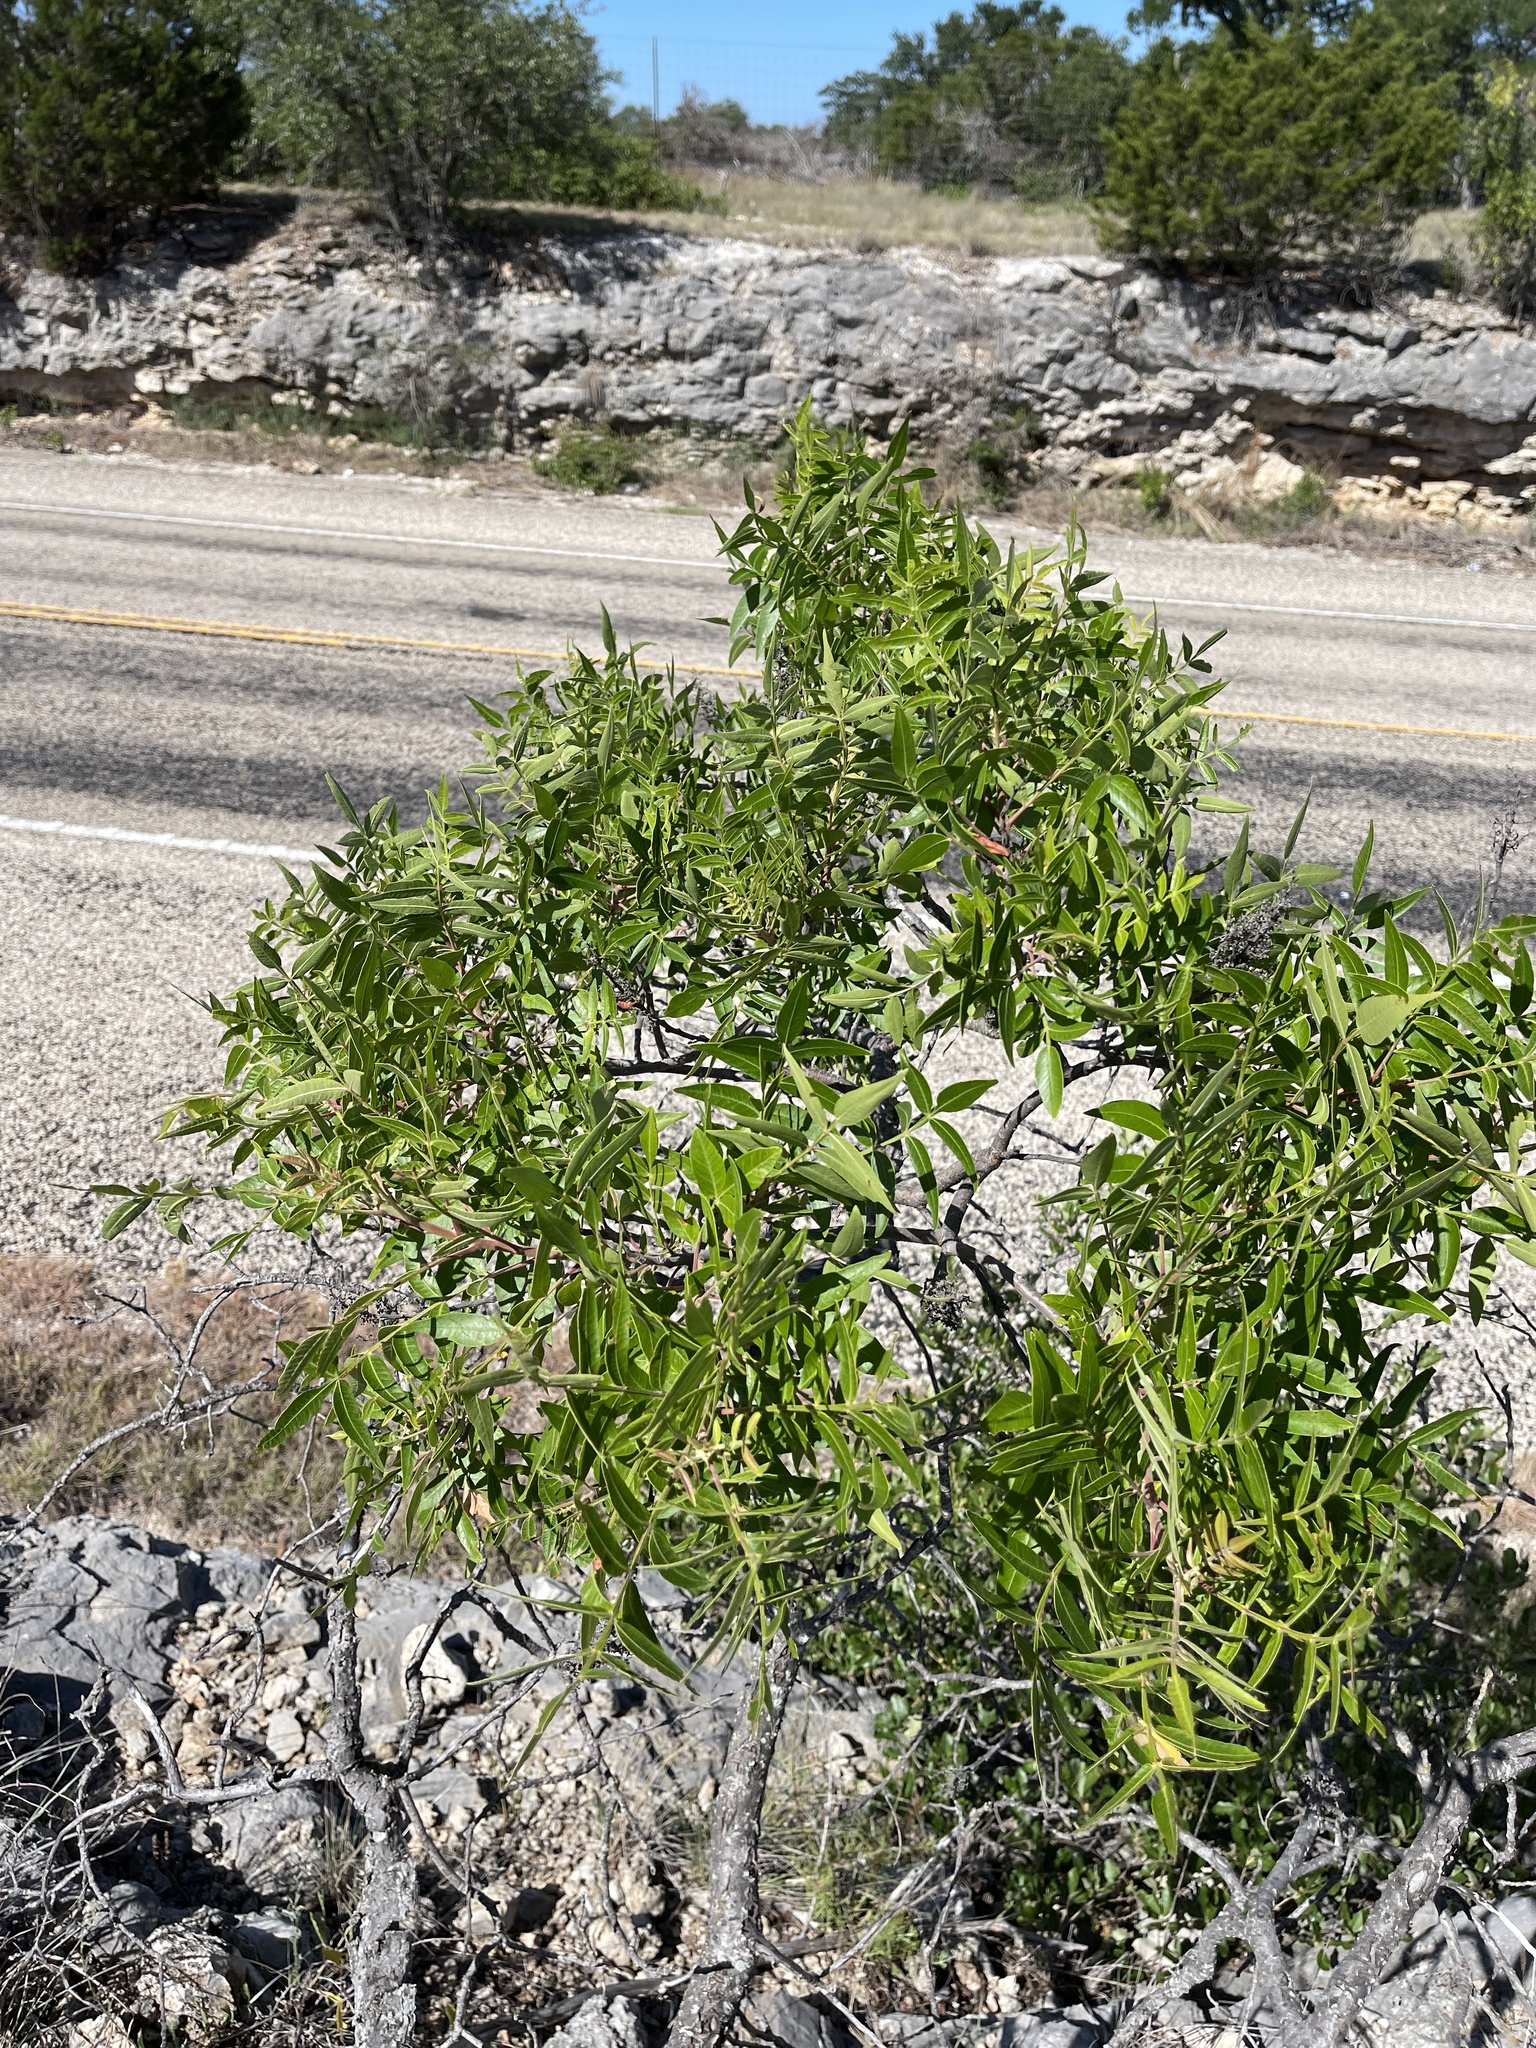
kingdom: Plantae
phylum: Tracheophyta
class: Magnoliopsida
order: Sapindales
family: Anacardiaceae
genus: Rhus
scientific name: Rhus lanceolata
